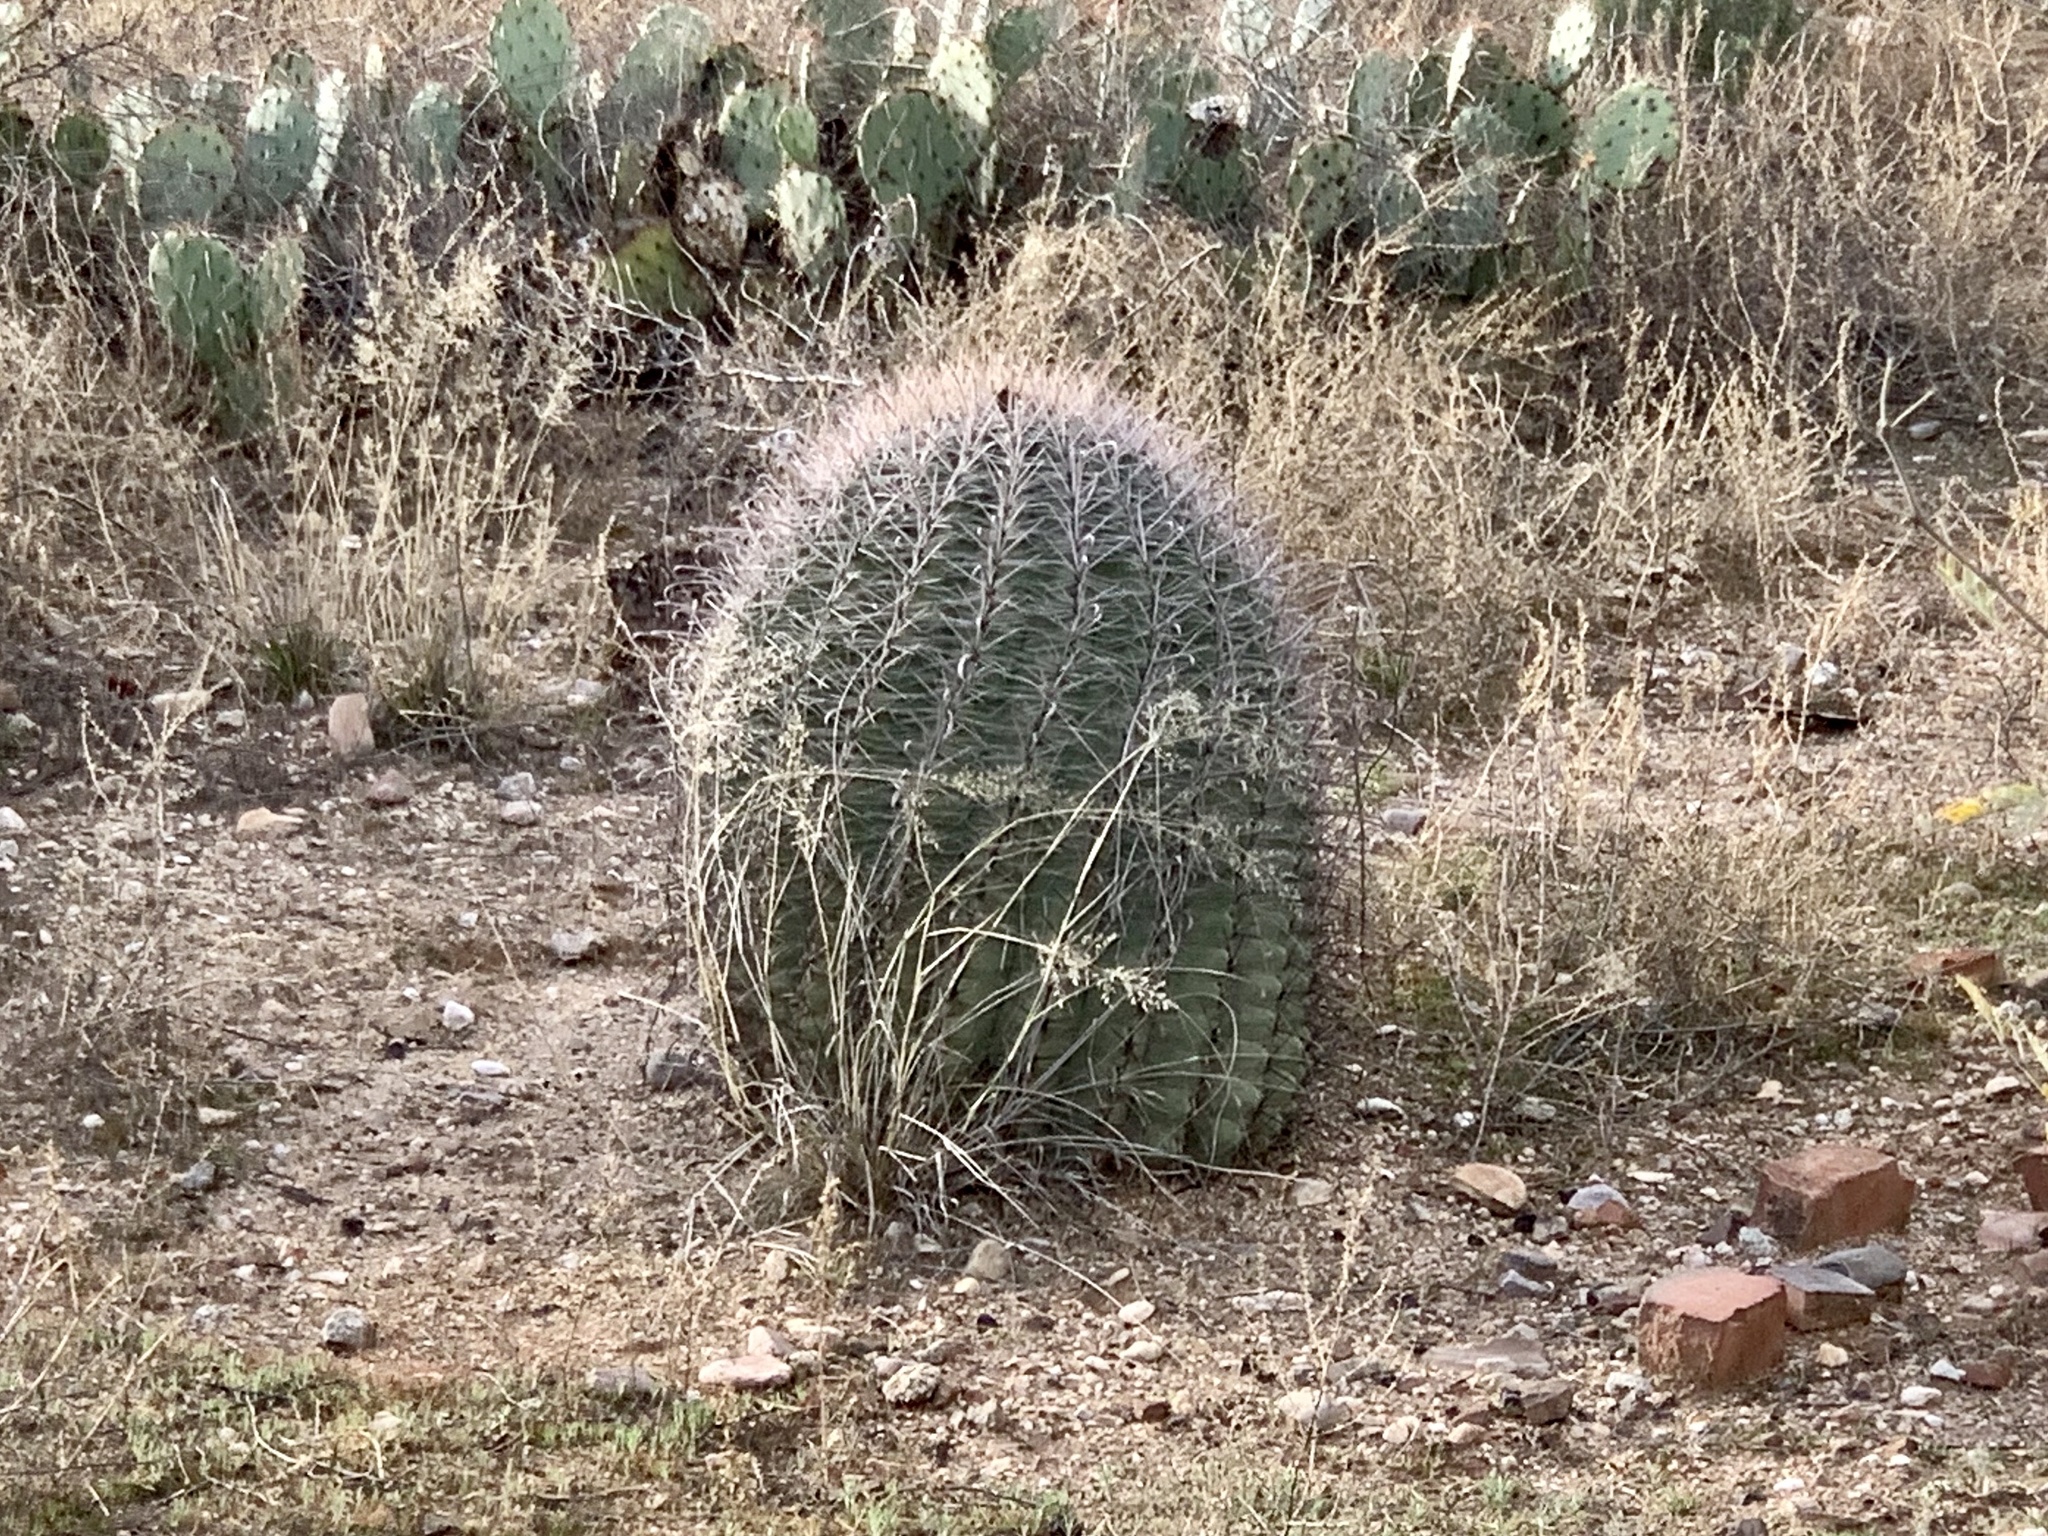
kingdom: Plantae
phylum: Tracheophyta
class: Magnoliopsida
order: Caryophyllales
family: Cactaceae
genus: Ferocactus
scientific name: Ferocactus wislizeni
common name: Candy barrel cactus
